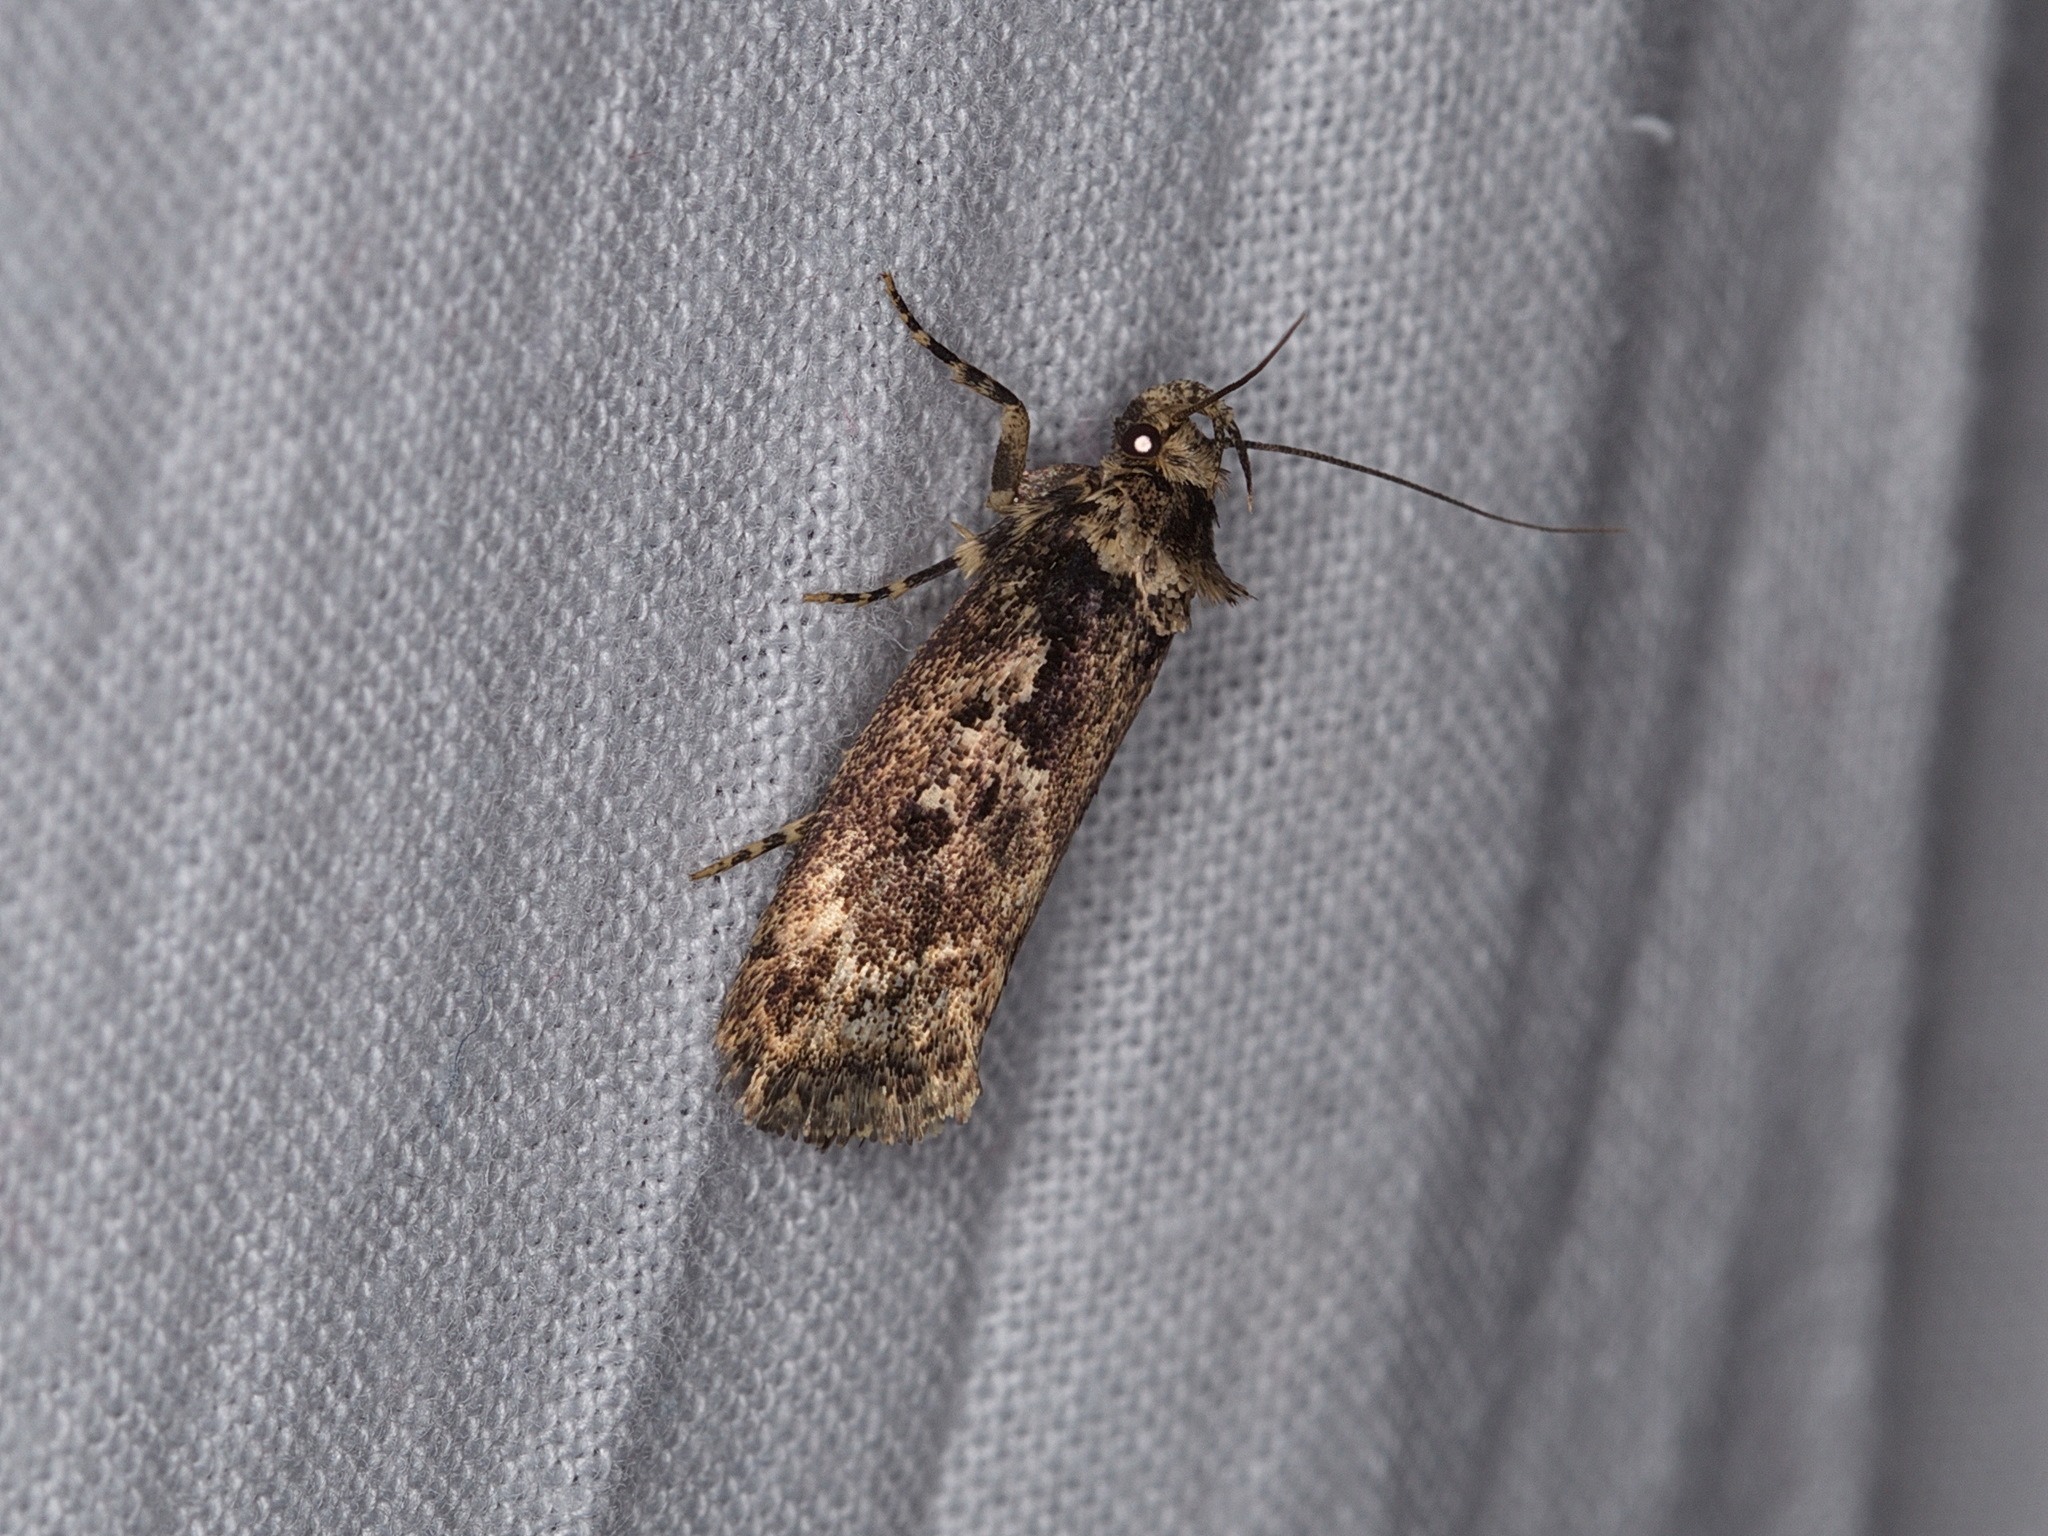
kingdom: Animalia
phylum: Arthropoda
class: Insecta
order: Lepidoptera
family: Oecophoridae
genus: Barea
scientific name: Barea consignatella
